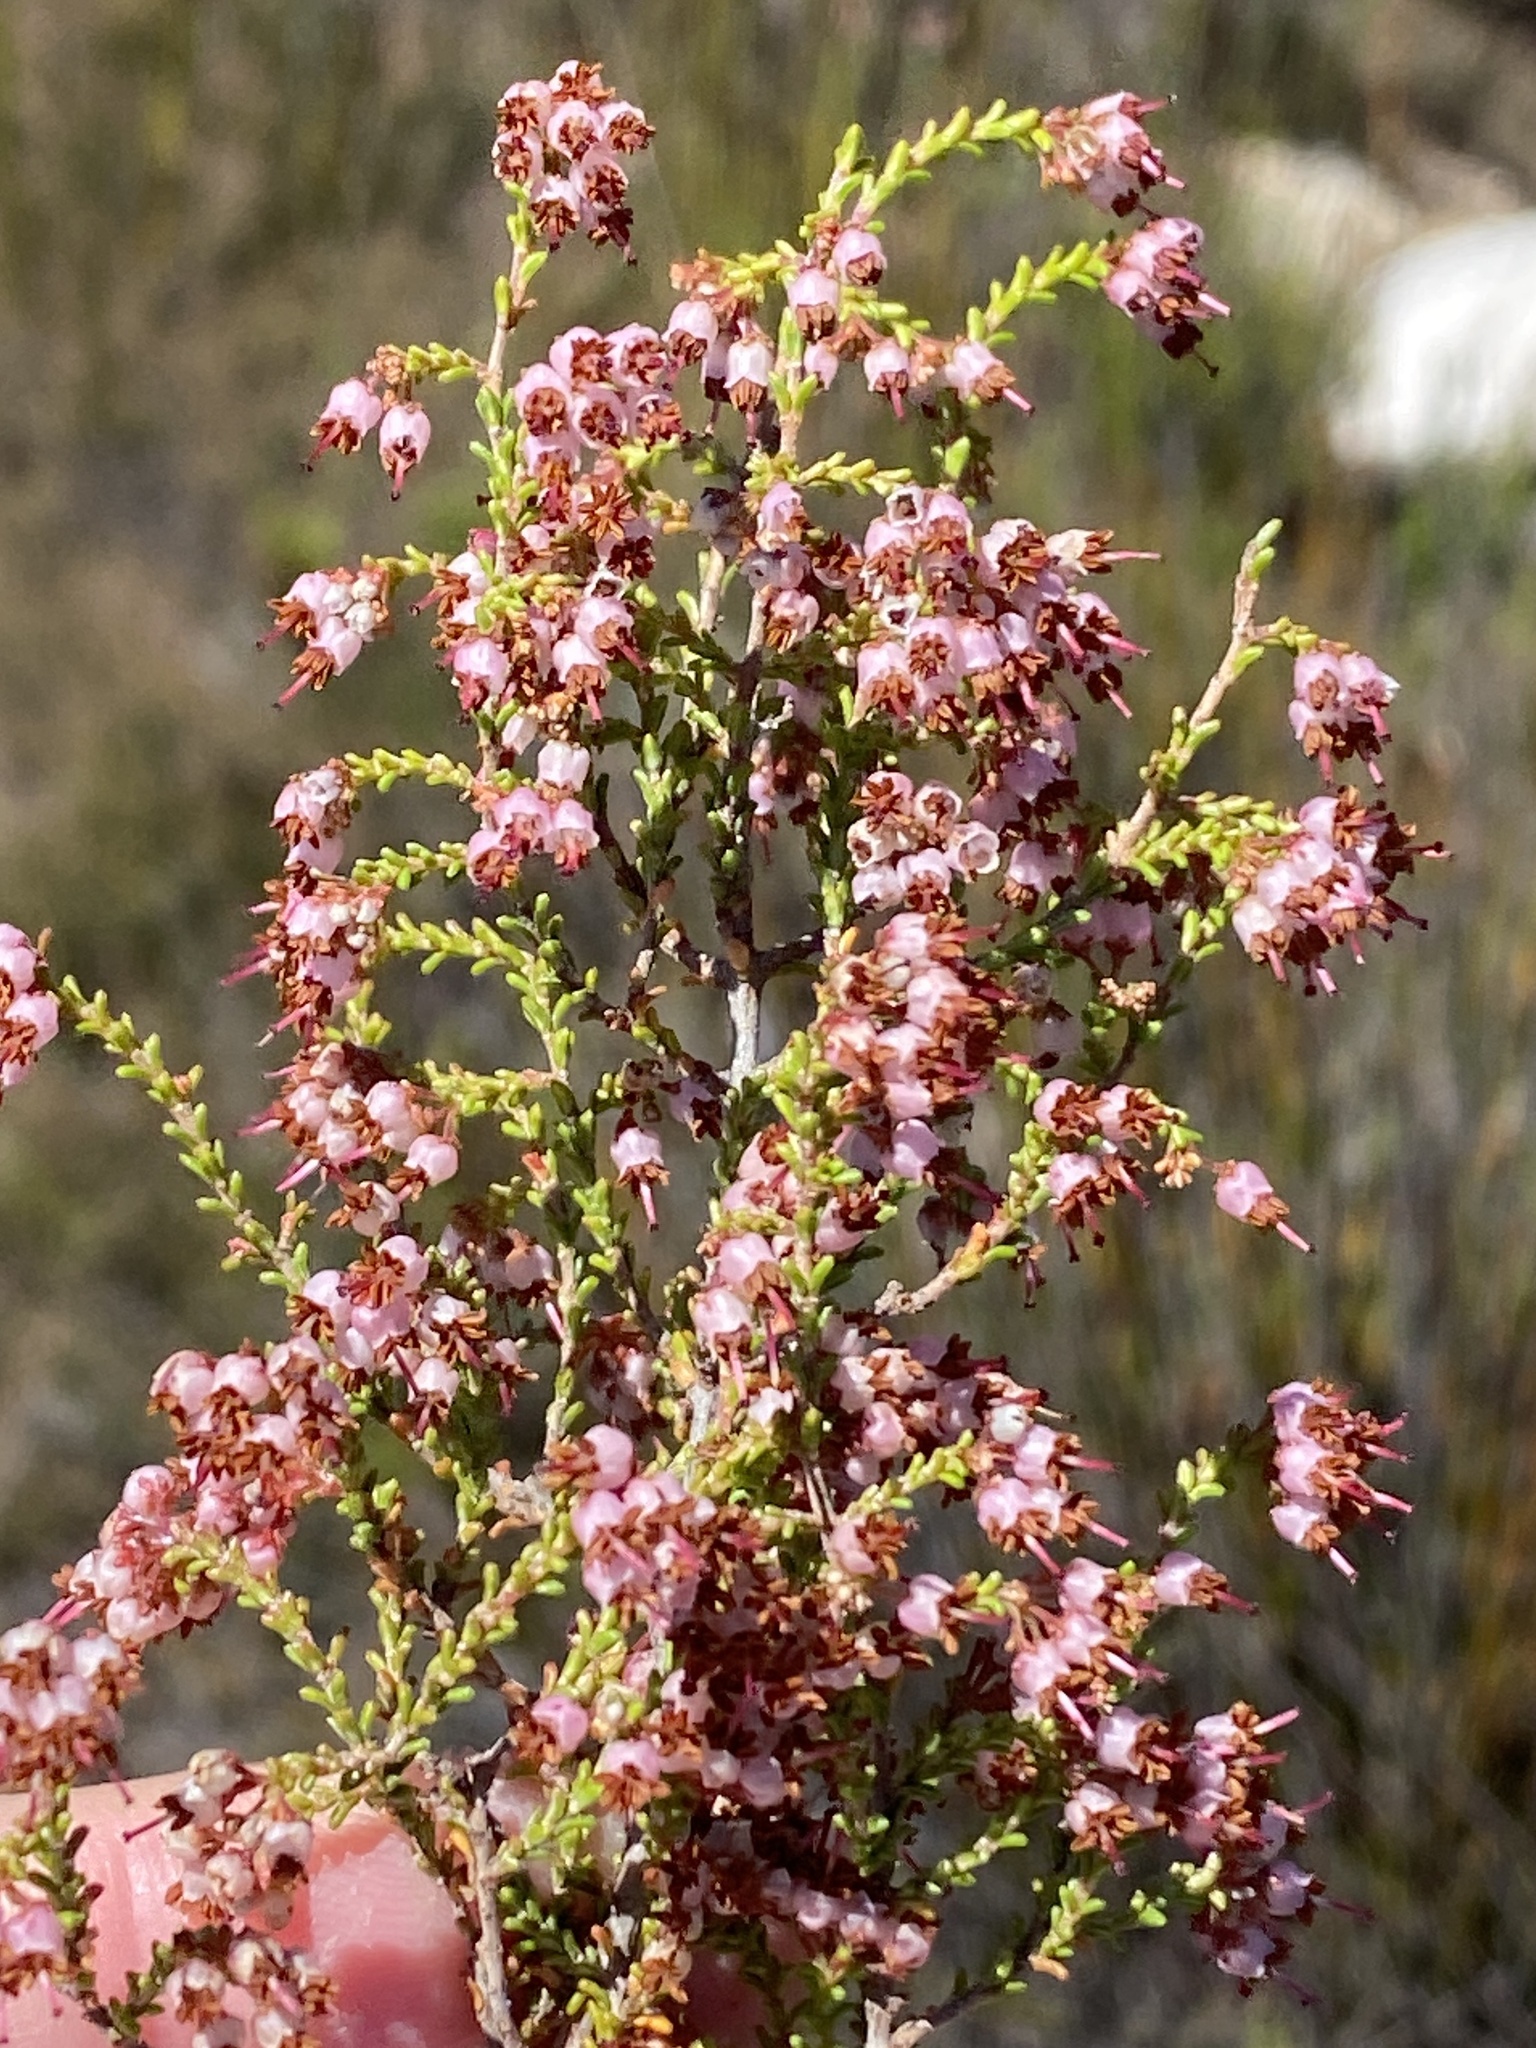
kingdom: Plantae
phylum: Tracheophyta
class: Magnoliopsida
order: Ericales
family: Ericaceae
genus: Erica
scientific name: Erica kougabergensis
